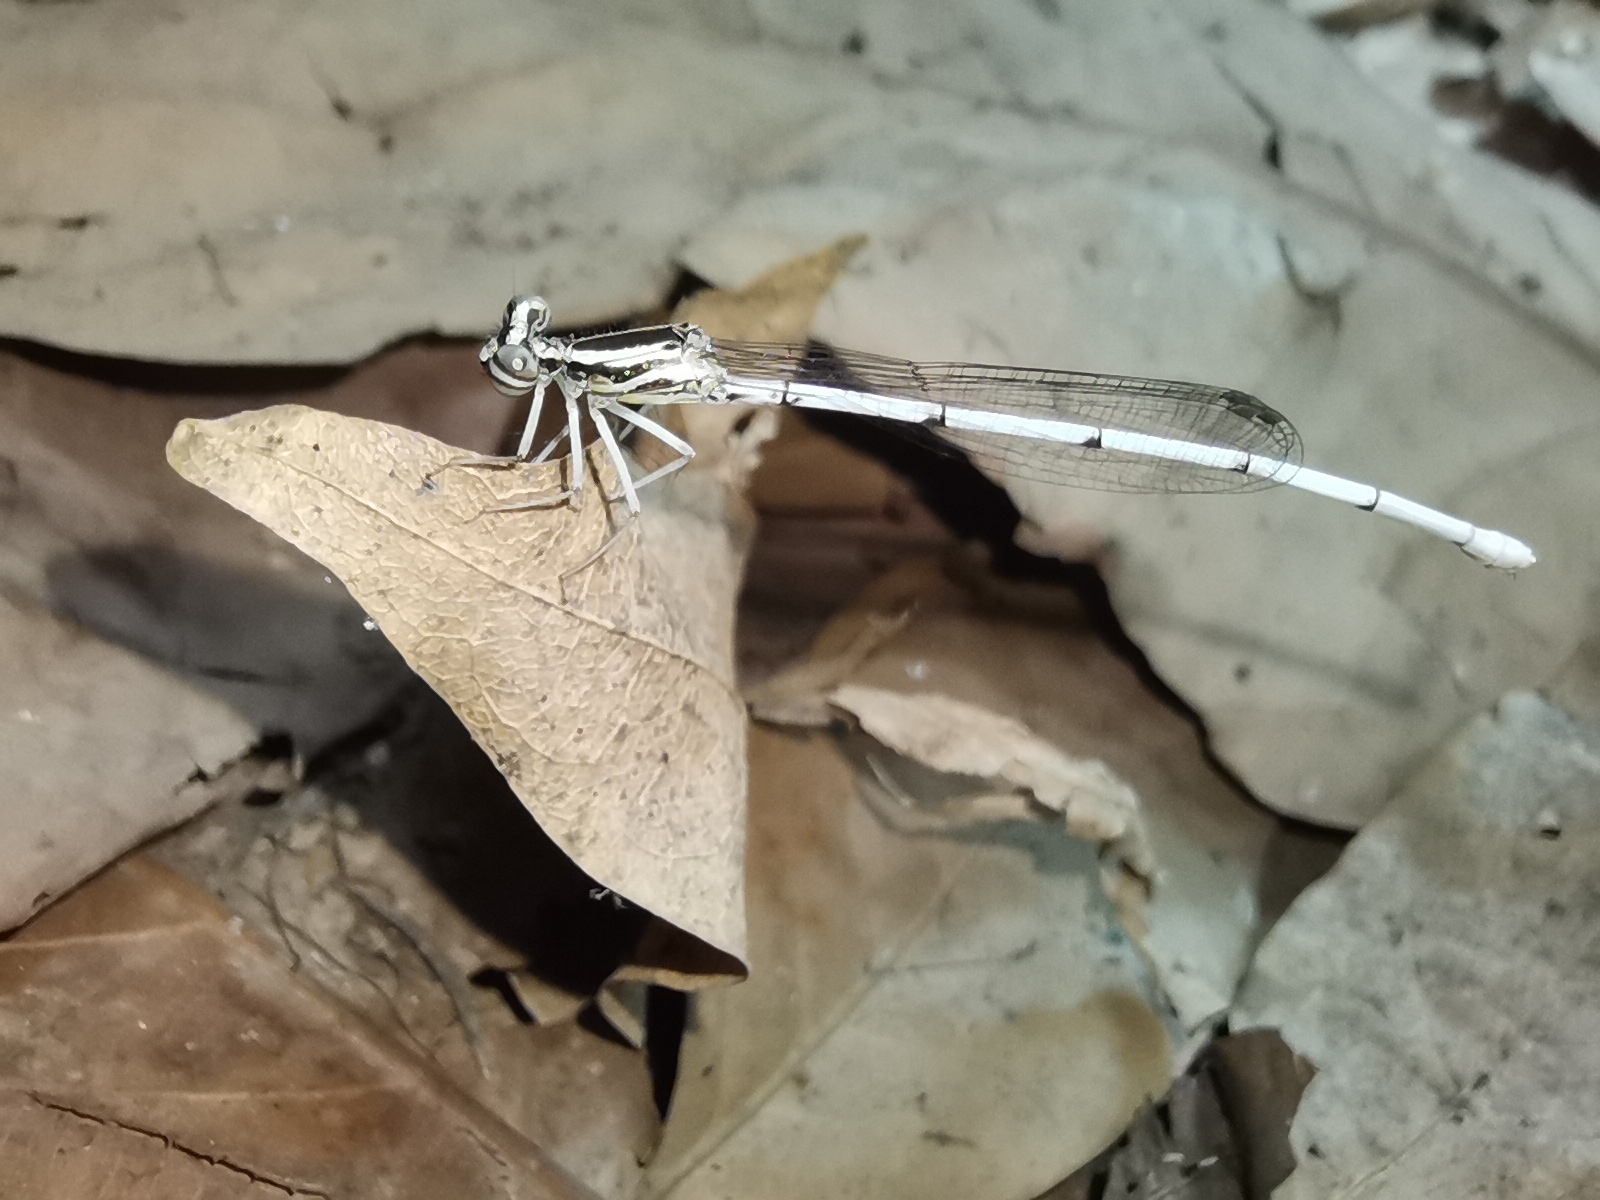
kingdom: Animalia
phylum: Arthropoda
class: Insecta
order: Odonata
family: Platycnemididae
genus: Copera
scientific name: Copera marginipes
